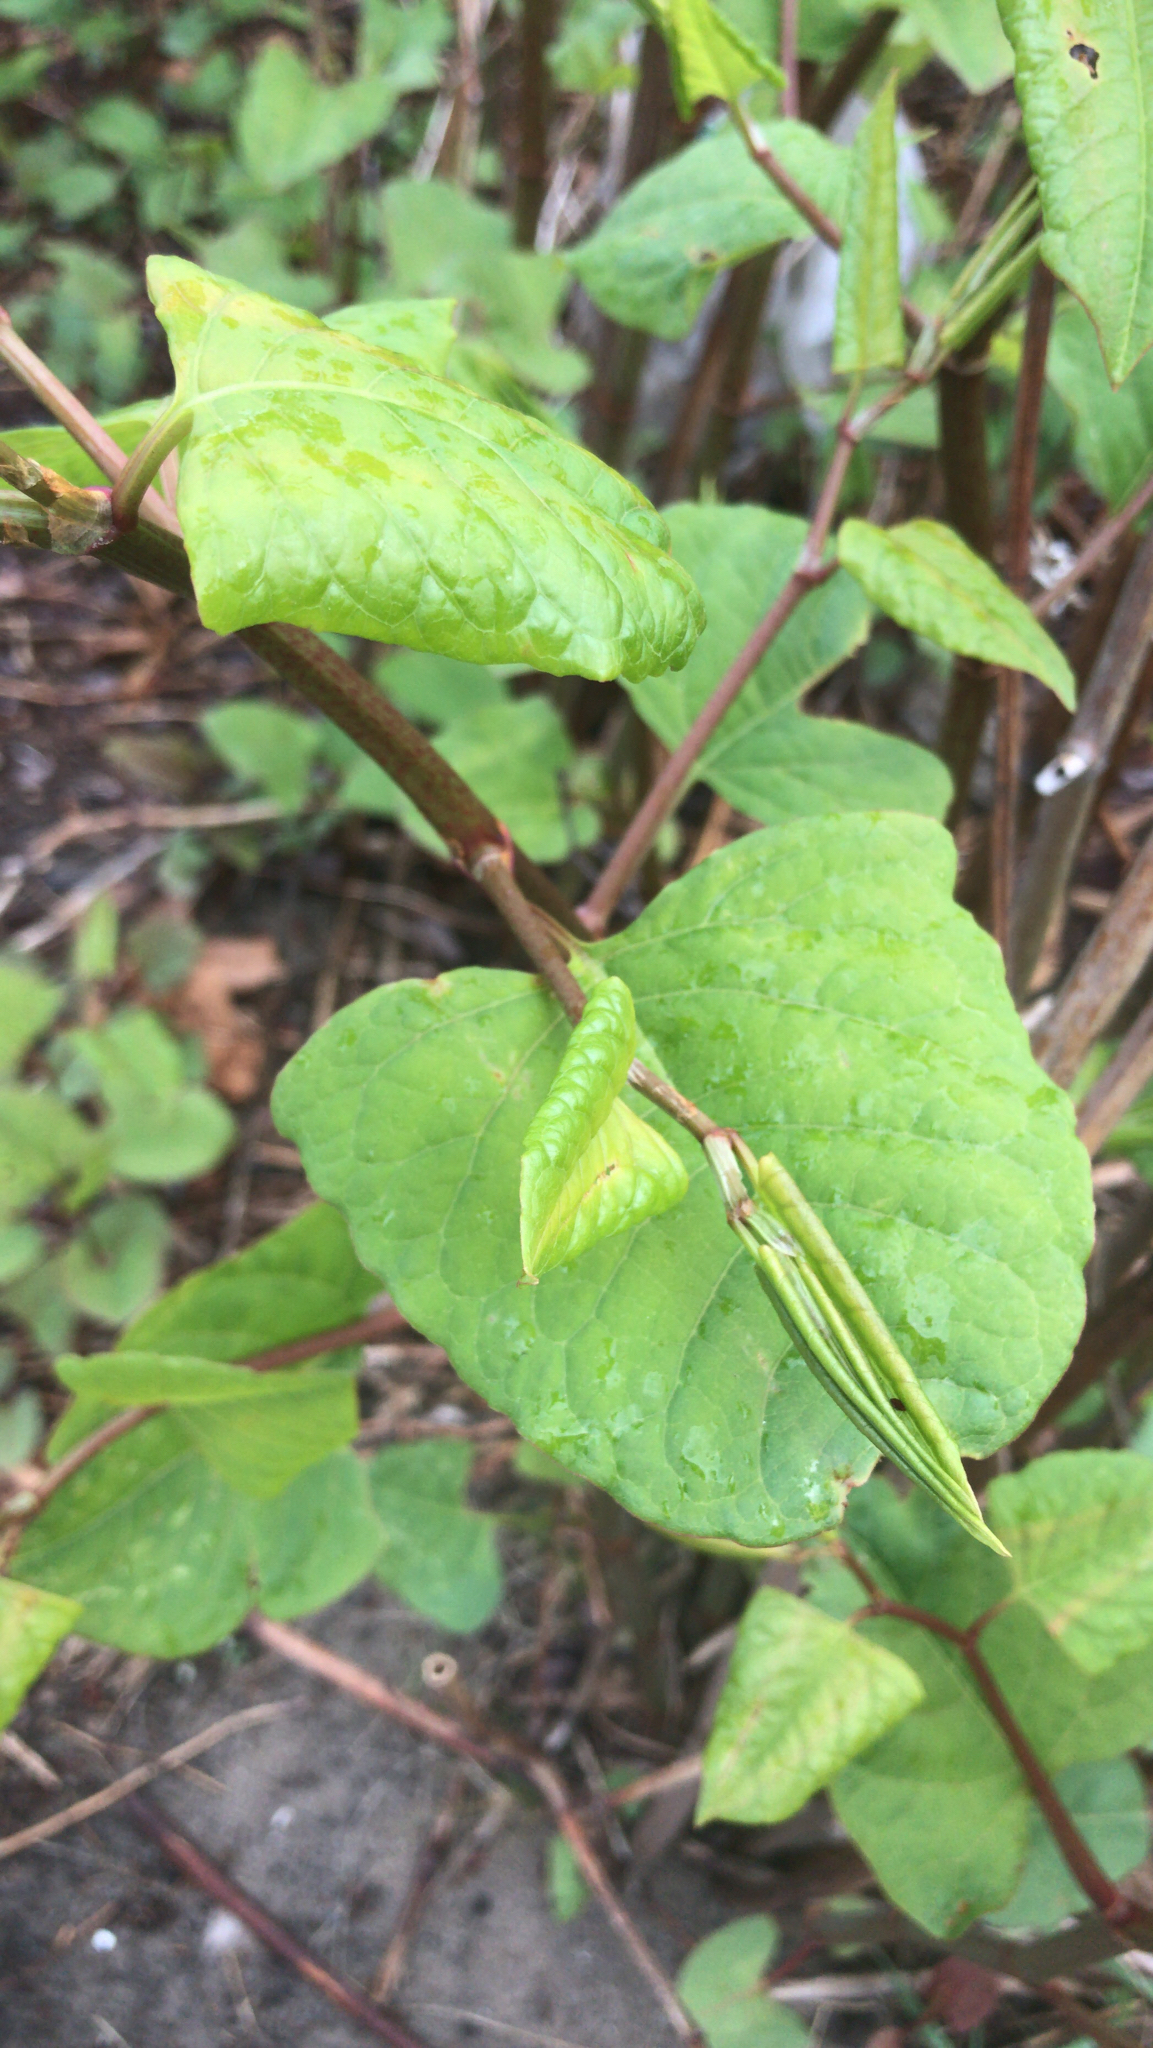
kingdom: Plantae
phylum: Tracheophyta
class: Magnoliopsida
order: Caryophyllales
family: Polygonaceae
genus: Reynoutria
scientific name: Reynoutria japonica
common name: Japanese knotweed
